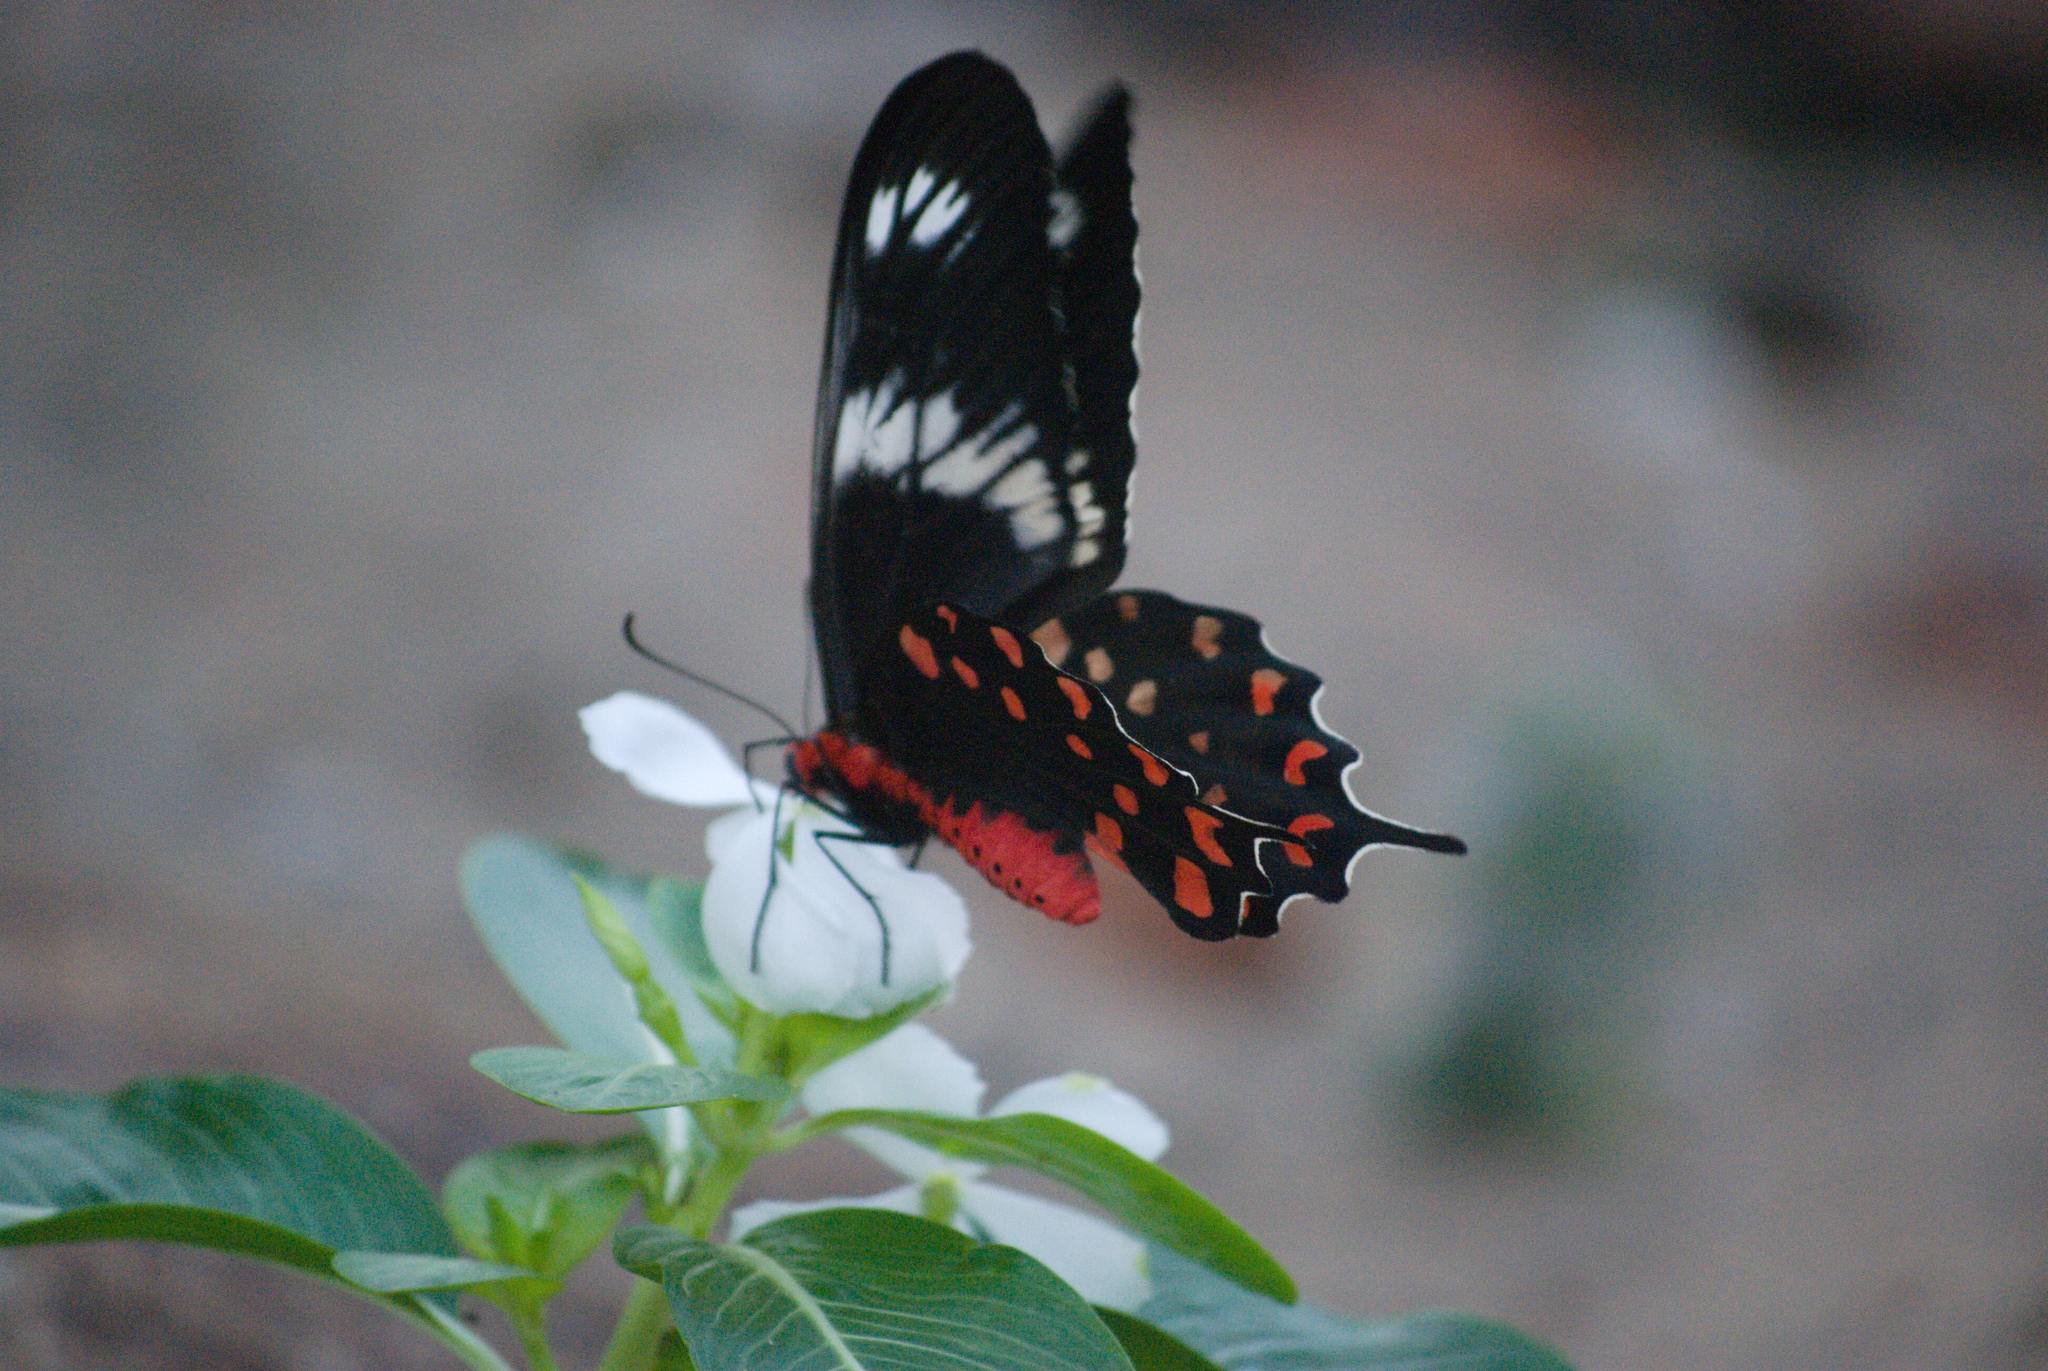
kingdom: Animalia
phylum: Arthropoda
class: Insecta
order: Lepidoptera
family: Papilionidae
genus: Pachliopta
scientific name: Pachliopta hector
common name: Crimson rose
